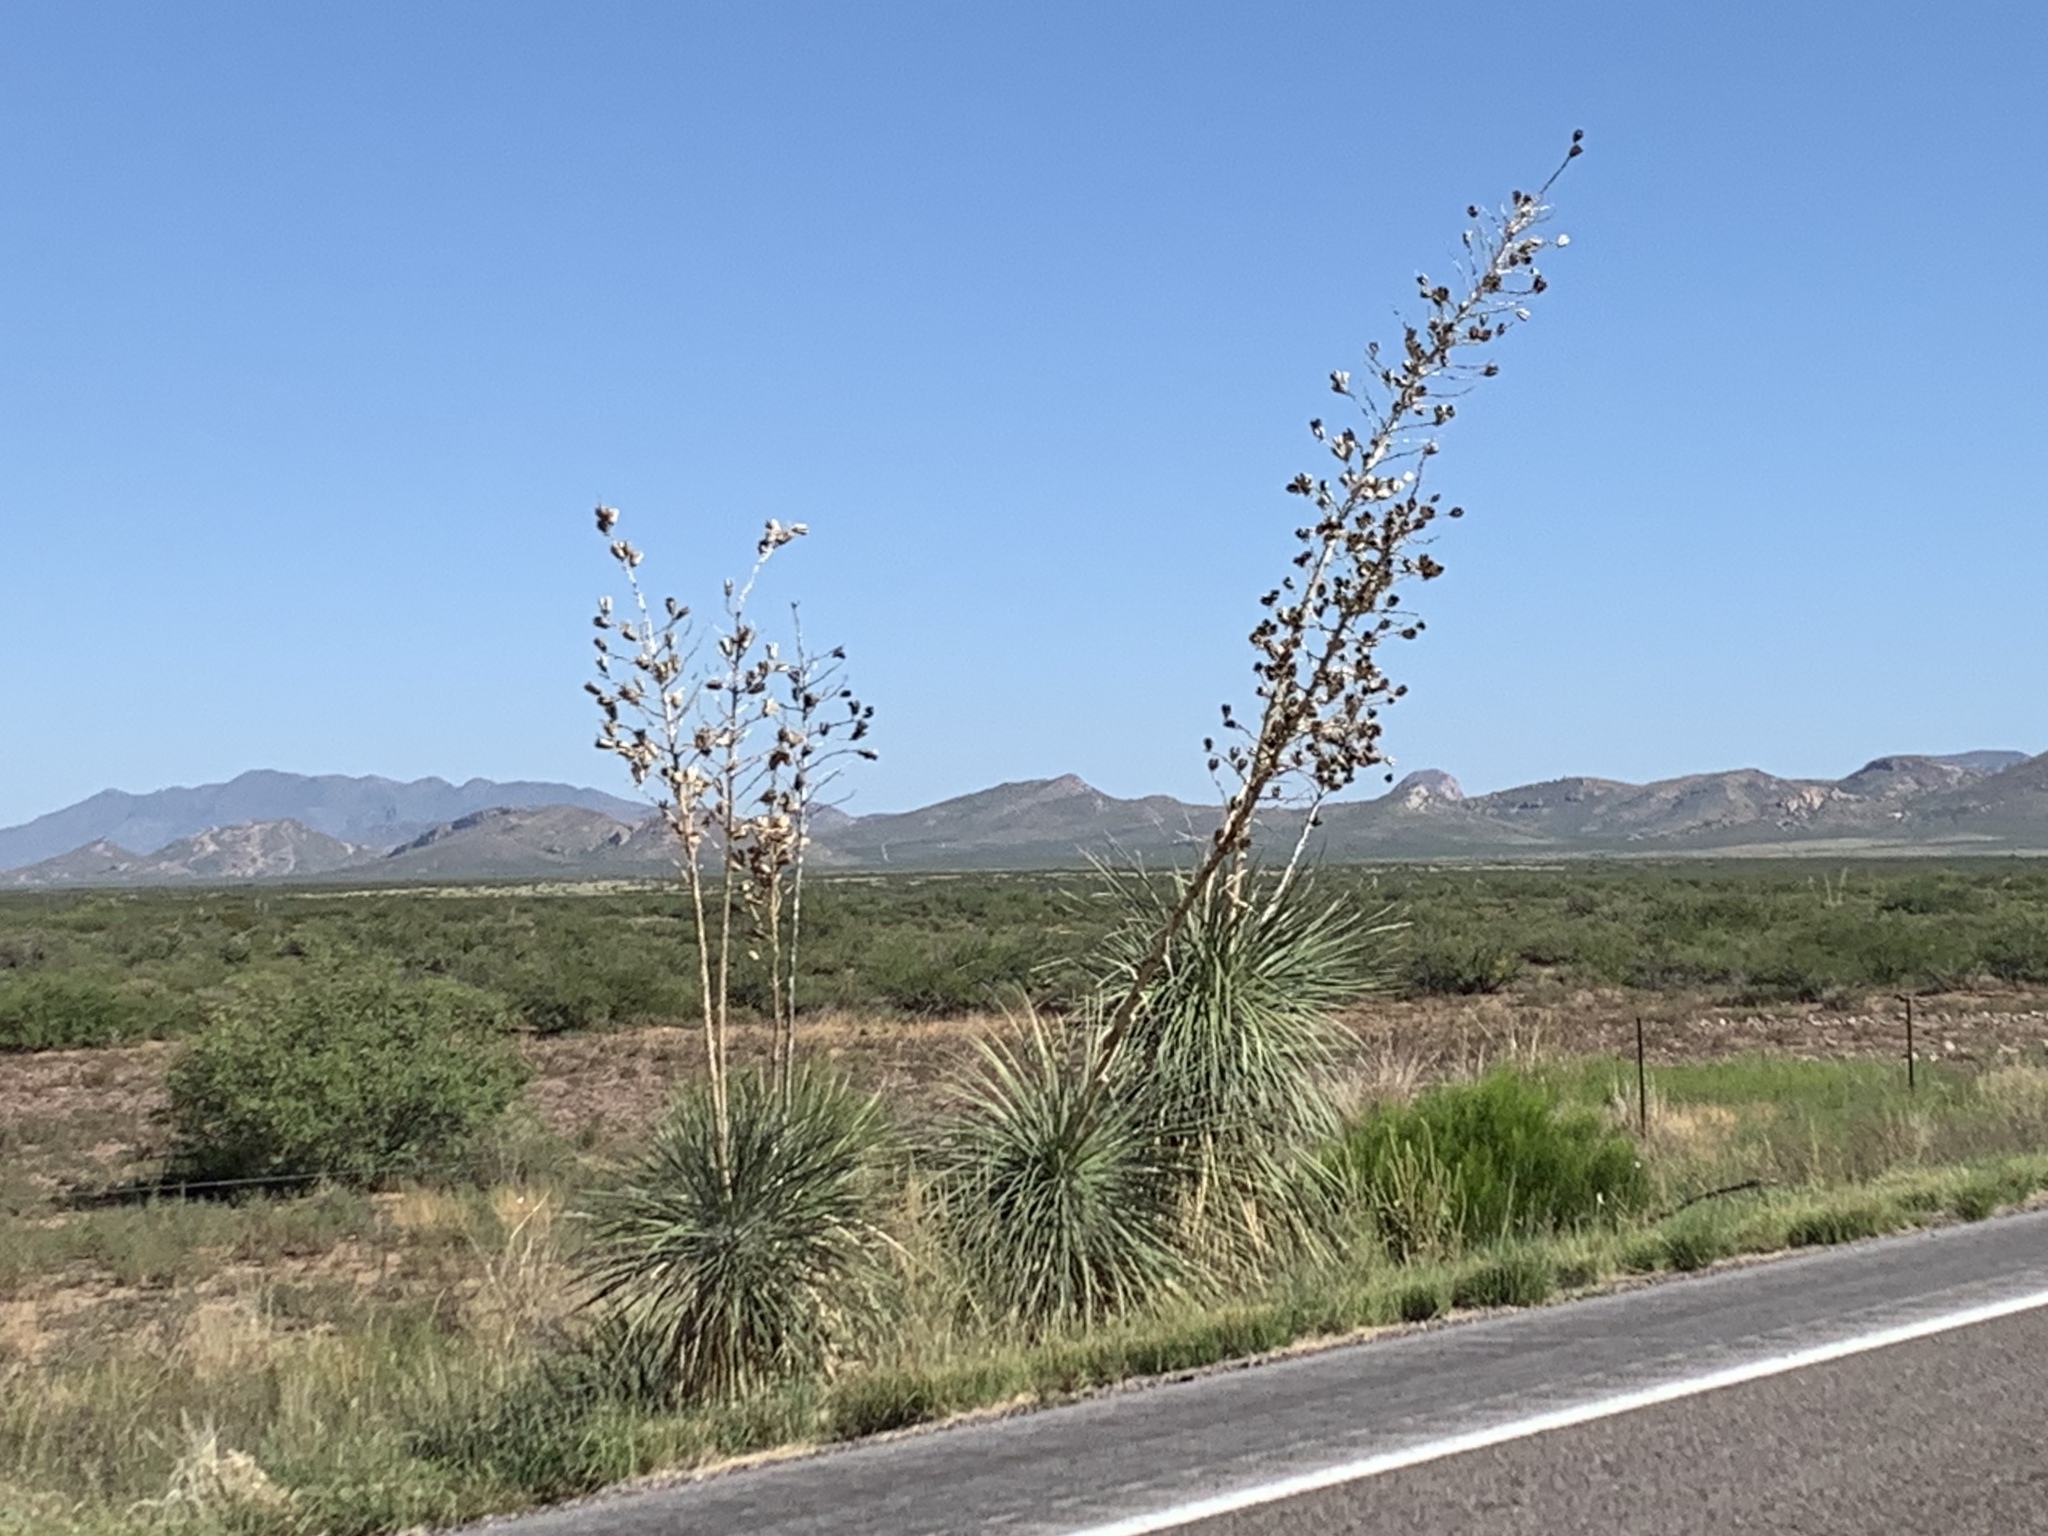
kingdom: Plantae
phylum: Tracheophyta
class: Liliopsida
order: Asparagales
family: Asparagaceae
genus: Yucca
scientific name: Yucca elata
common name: Palmella
